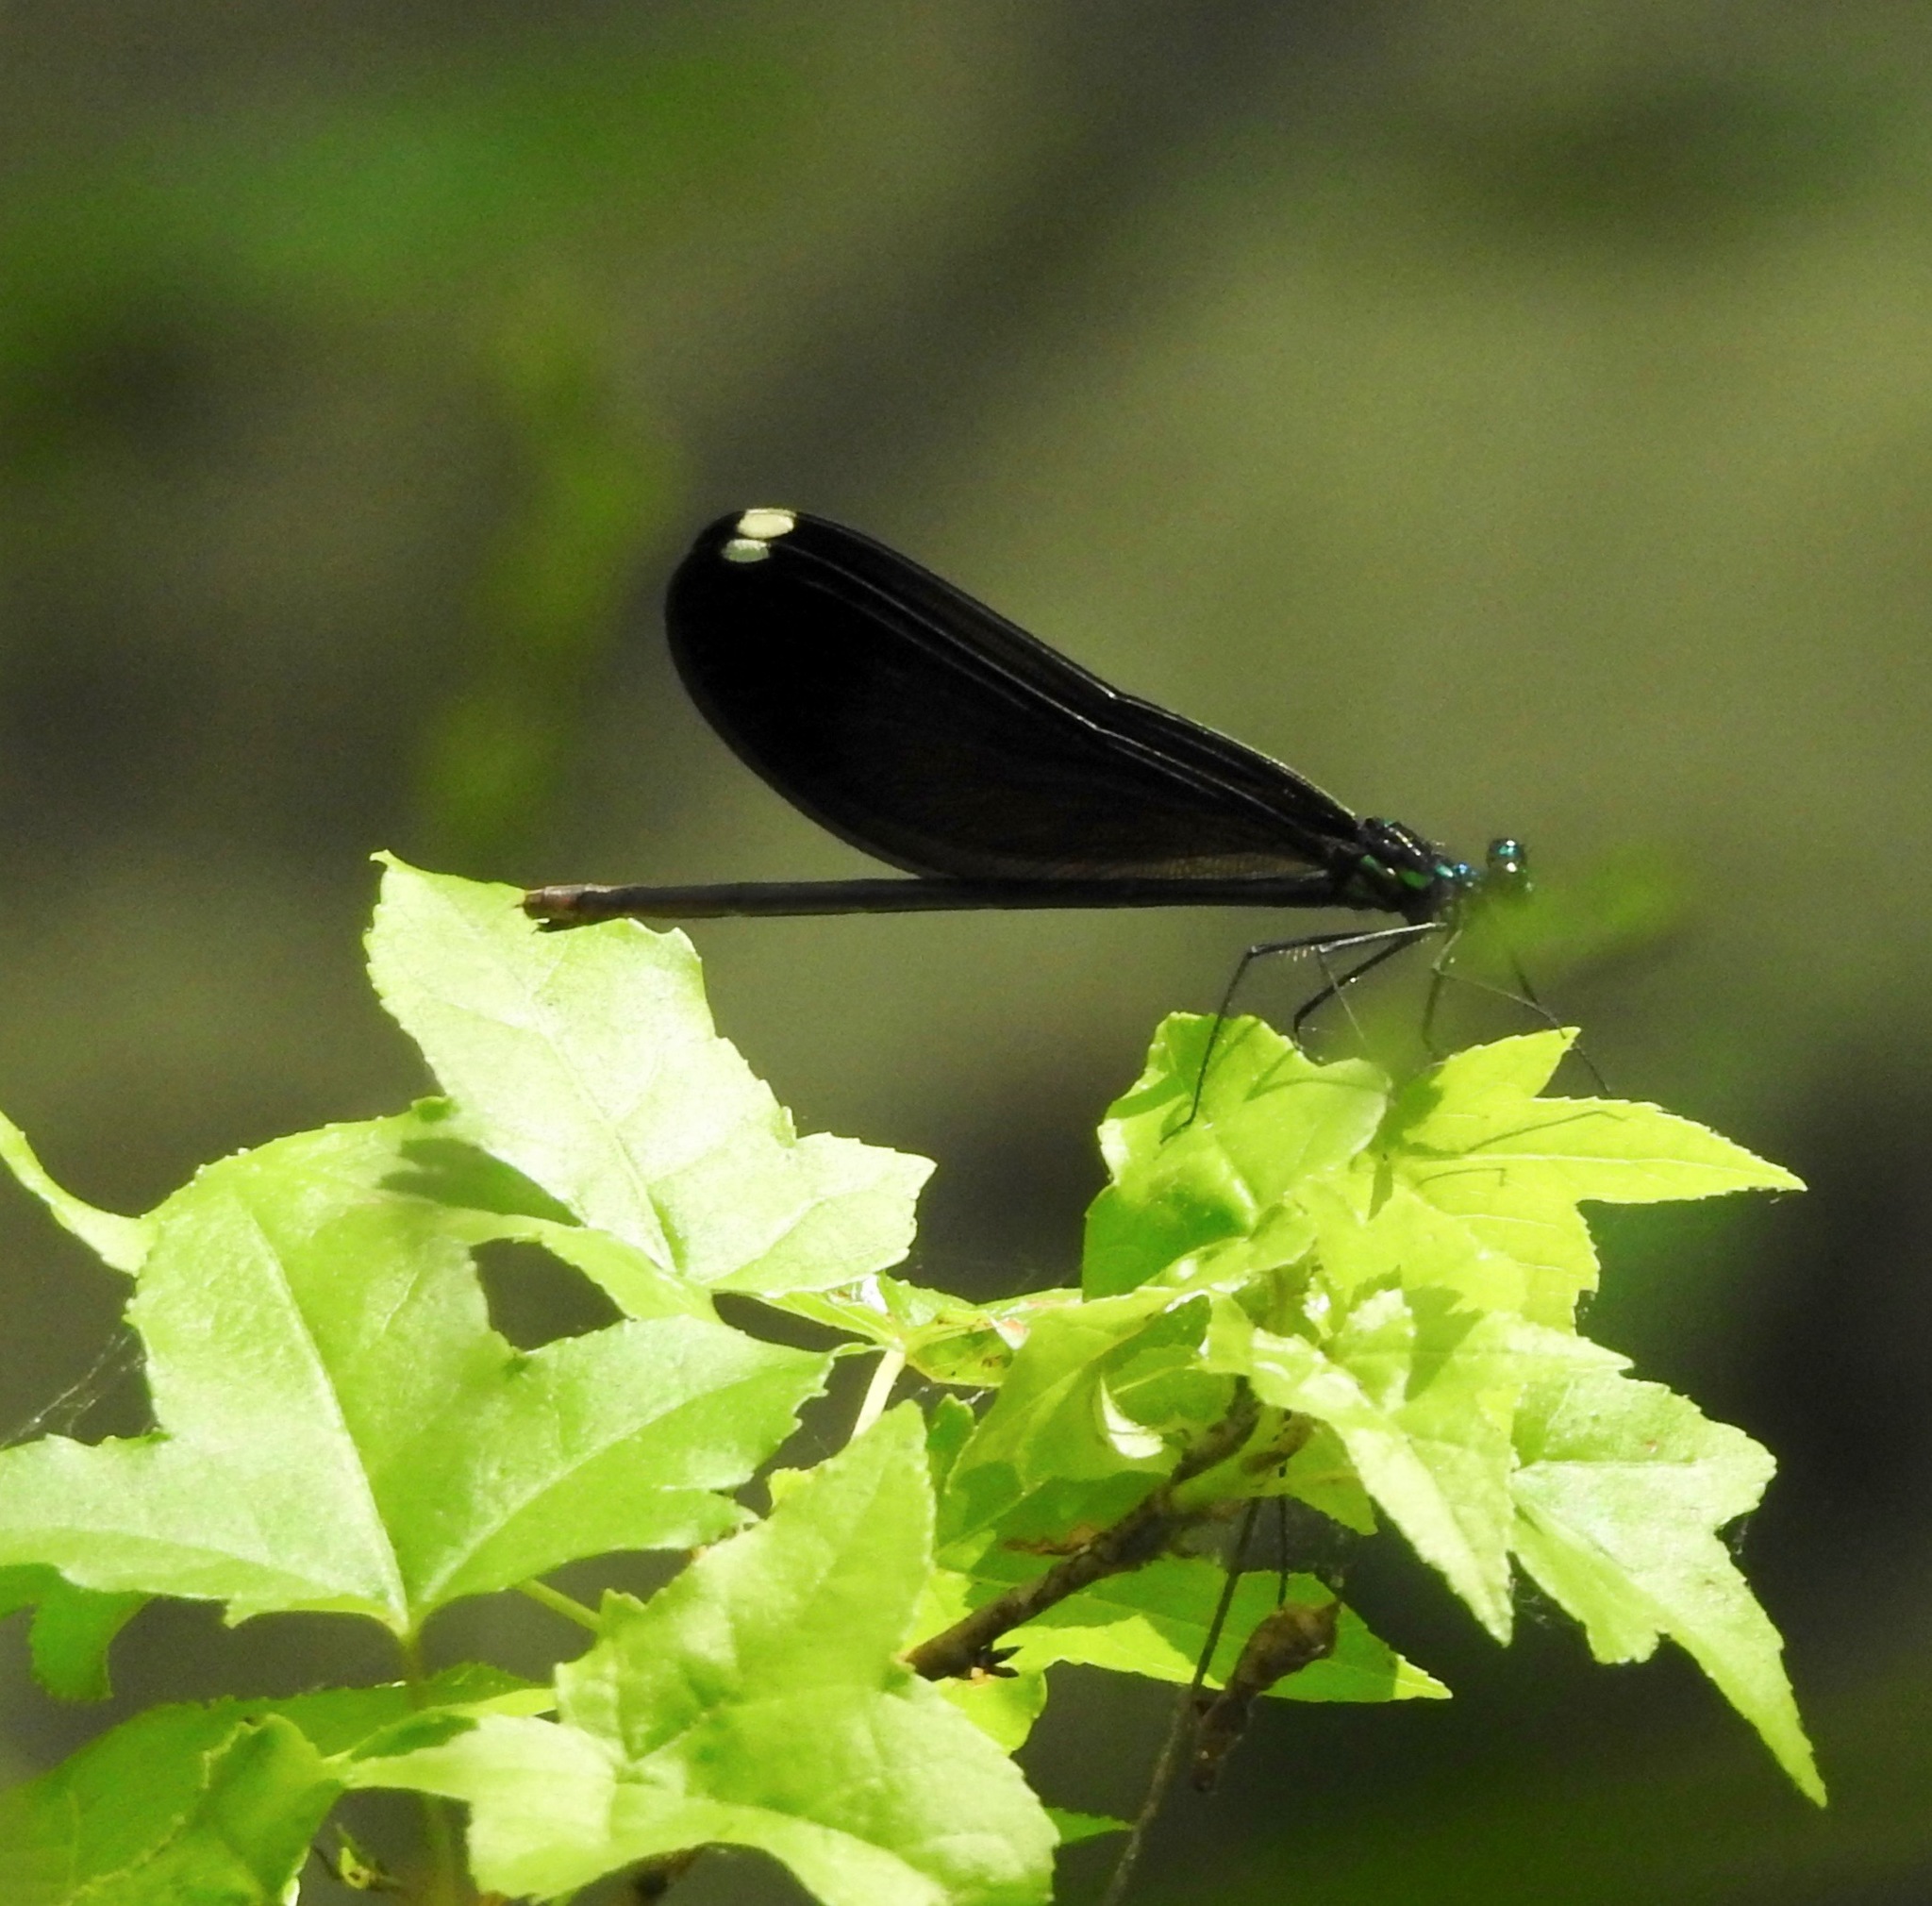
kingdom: Animalia
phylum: Arthropoda
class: Insecta
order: Odonata
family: Calopterygidae
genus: Calopteryx
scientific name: Calopteryx maculata
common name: Ebony jewelwing
